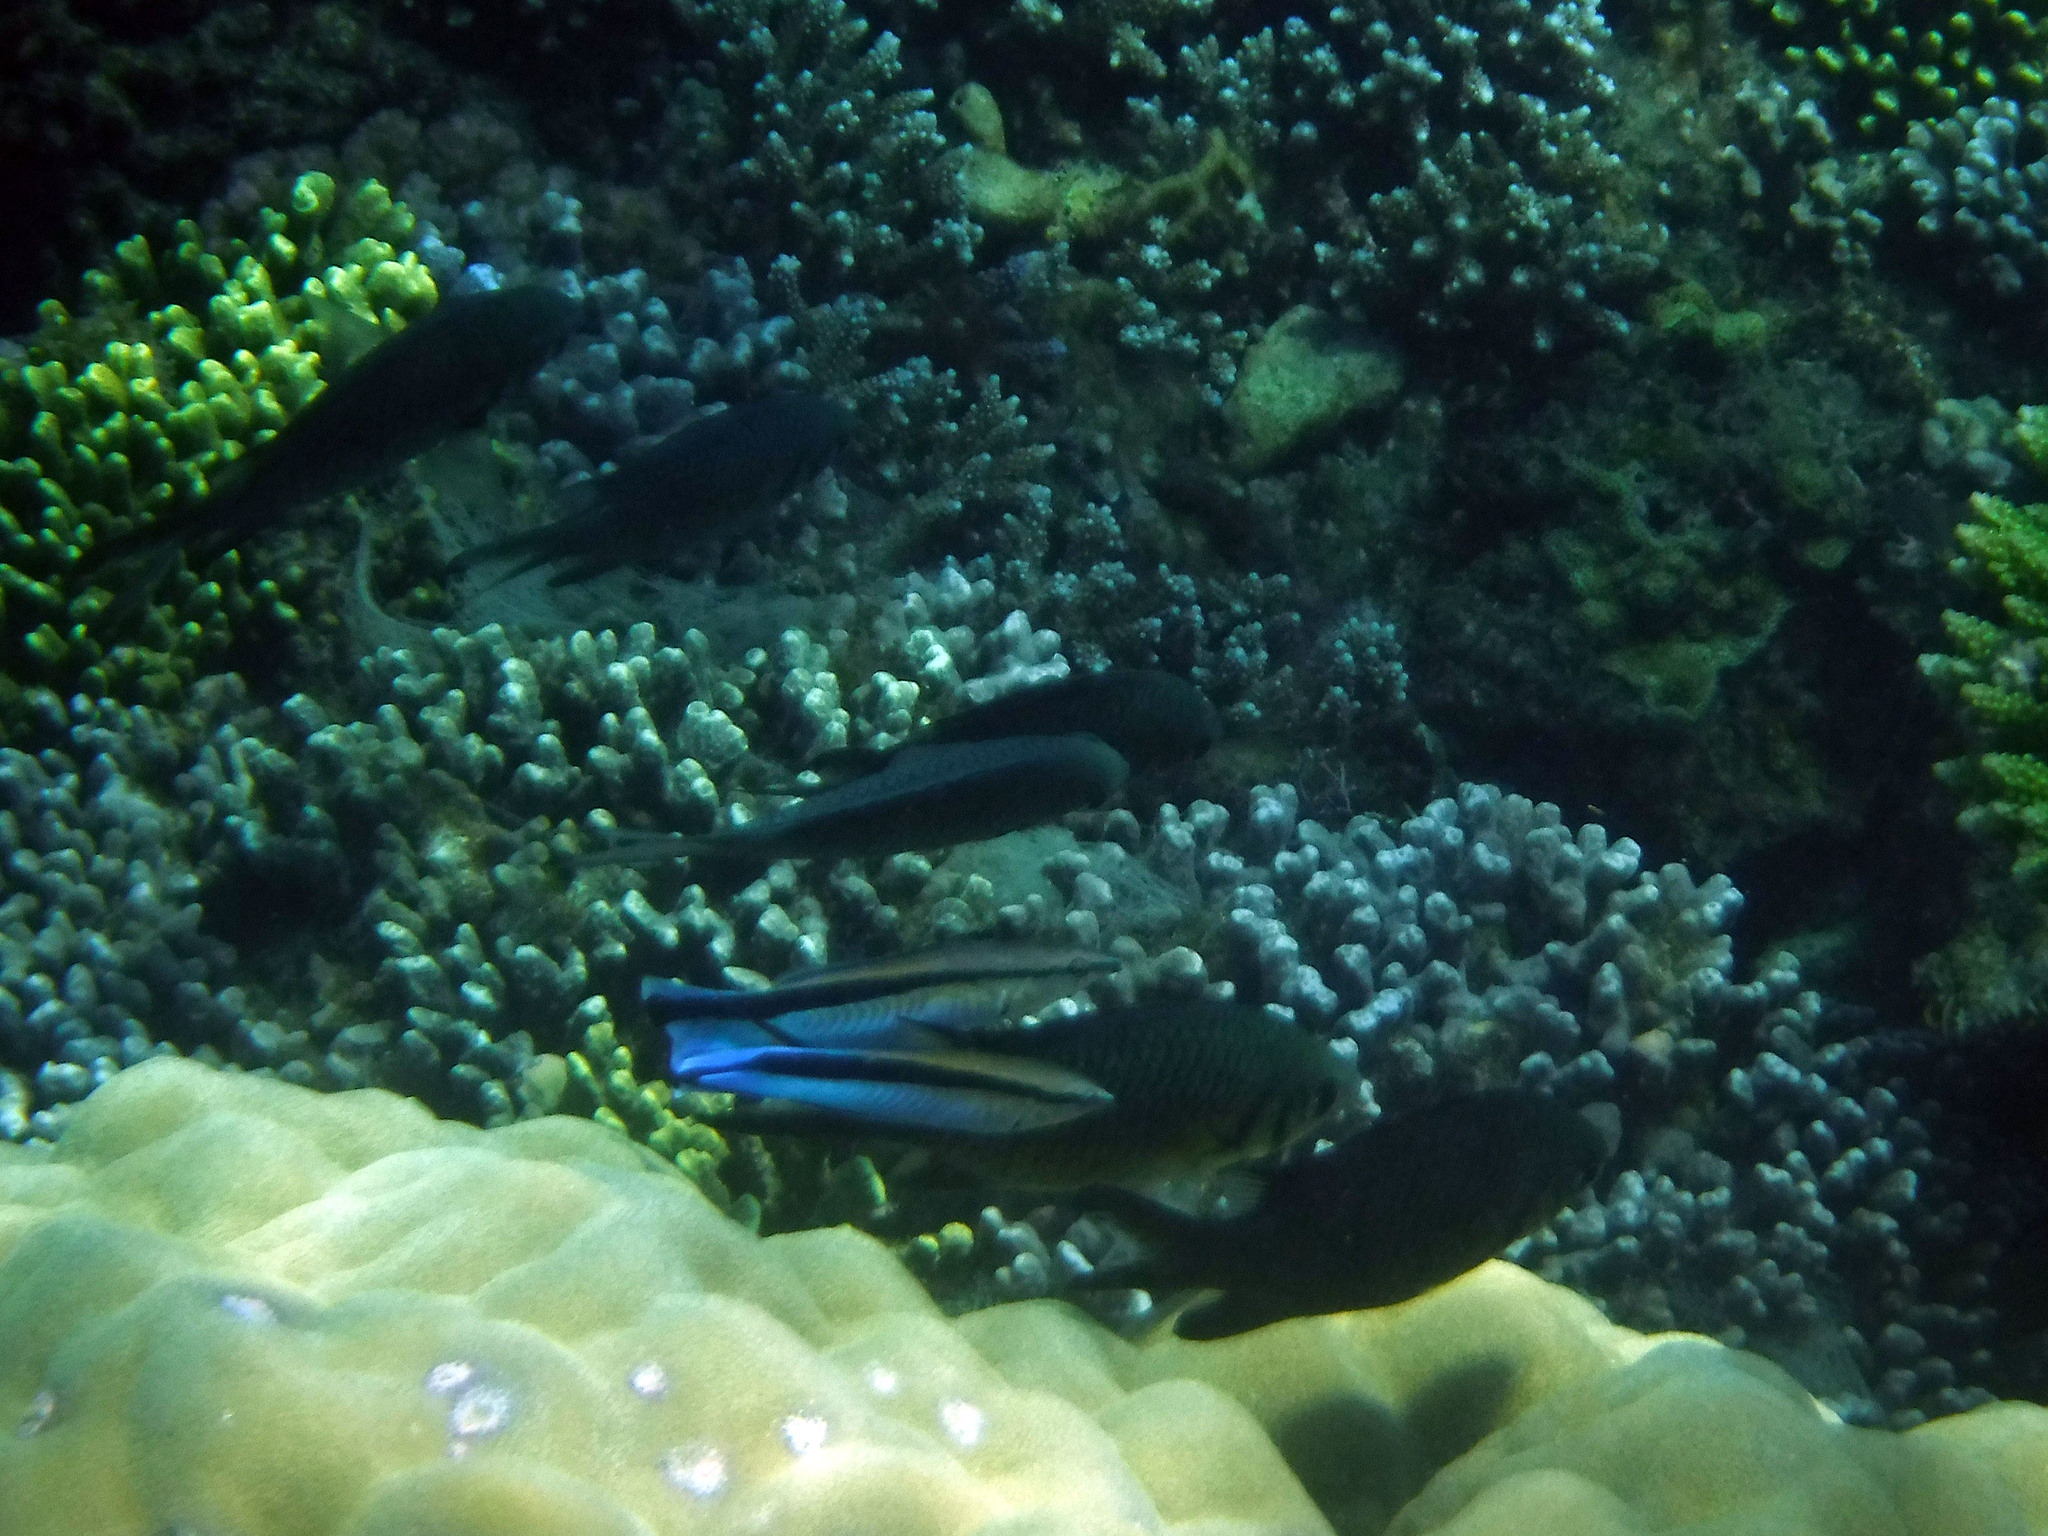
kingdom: Animalia
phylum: Chordata
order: Perciformes
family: Labridae
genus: Labroides
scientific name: Labroides dimidiatus
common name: Blue diesel wrasse
